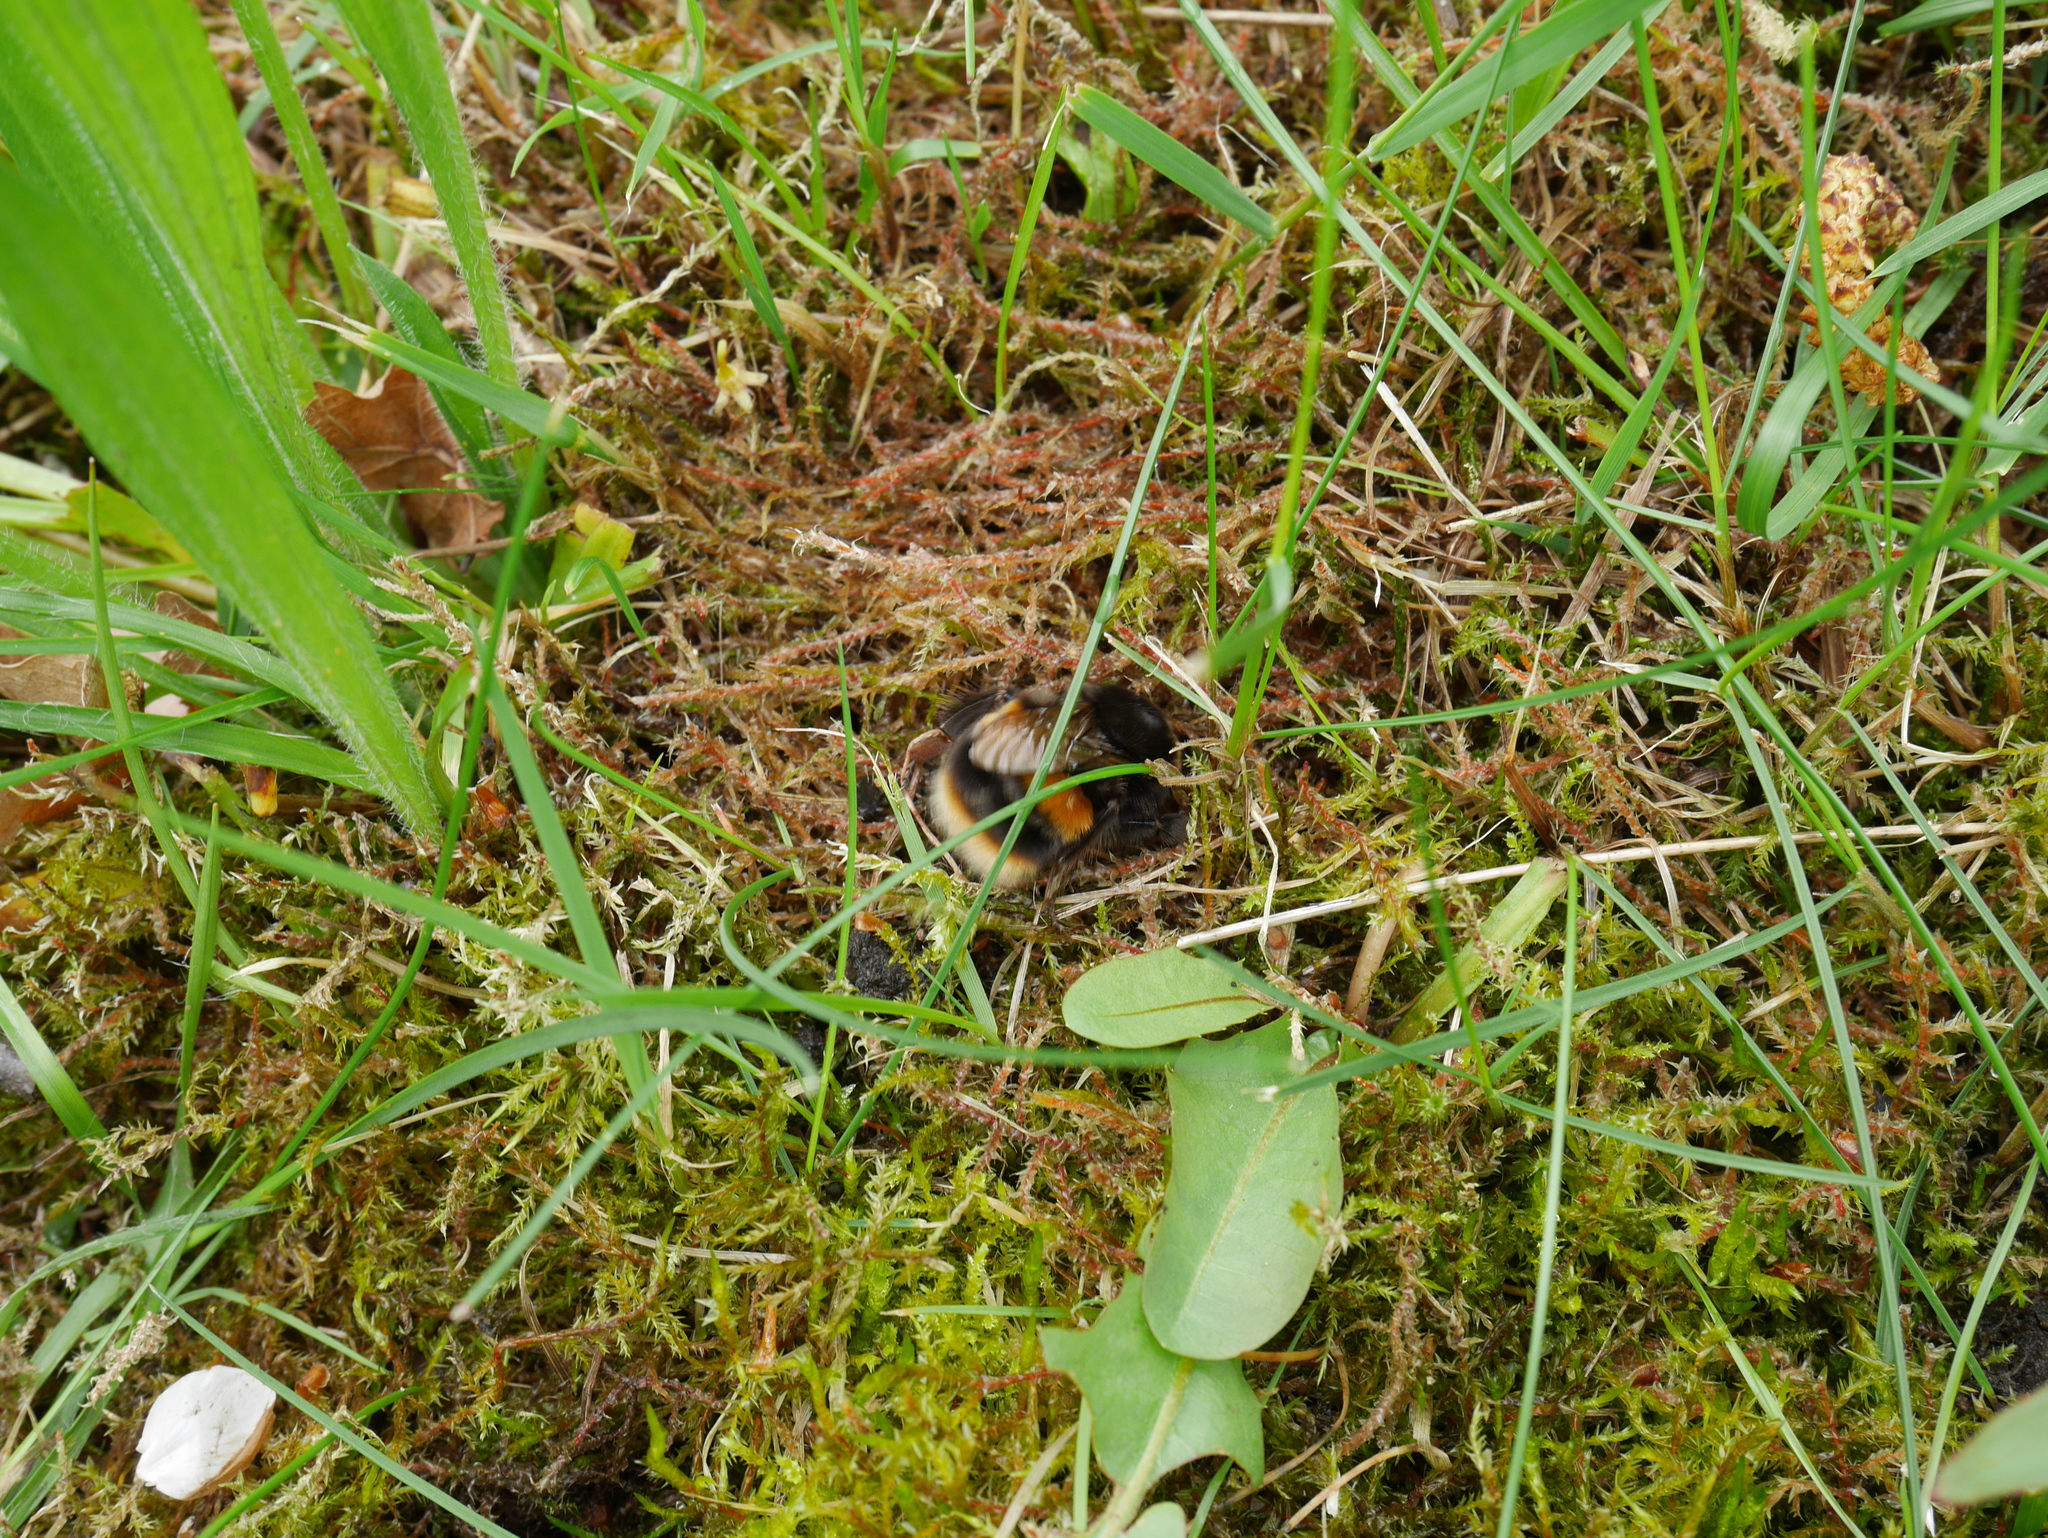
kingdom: Animalia
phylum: Arthropoda
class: Insecta
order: Hymenoptera
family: Apidae
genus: Bombus
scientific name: Bombus terrestris
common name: Buff-tailed bumblebee
